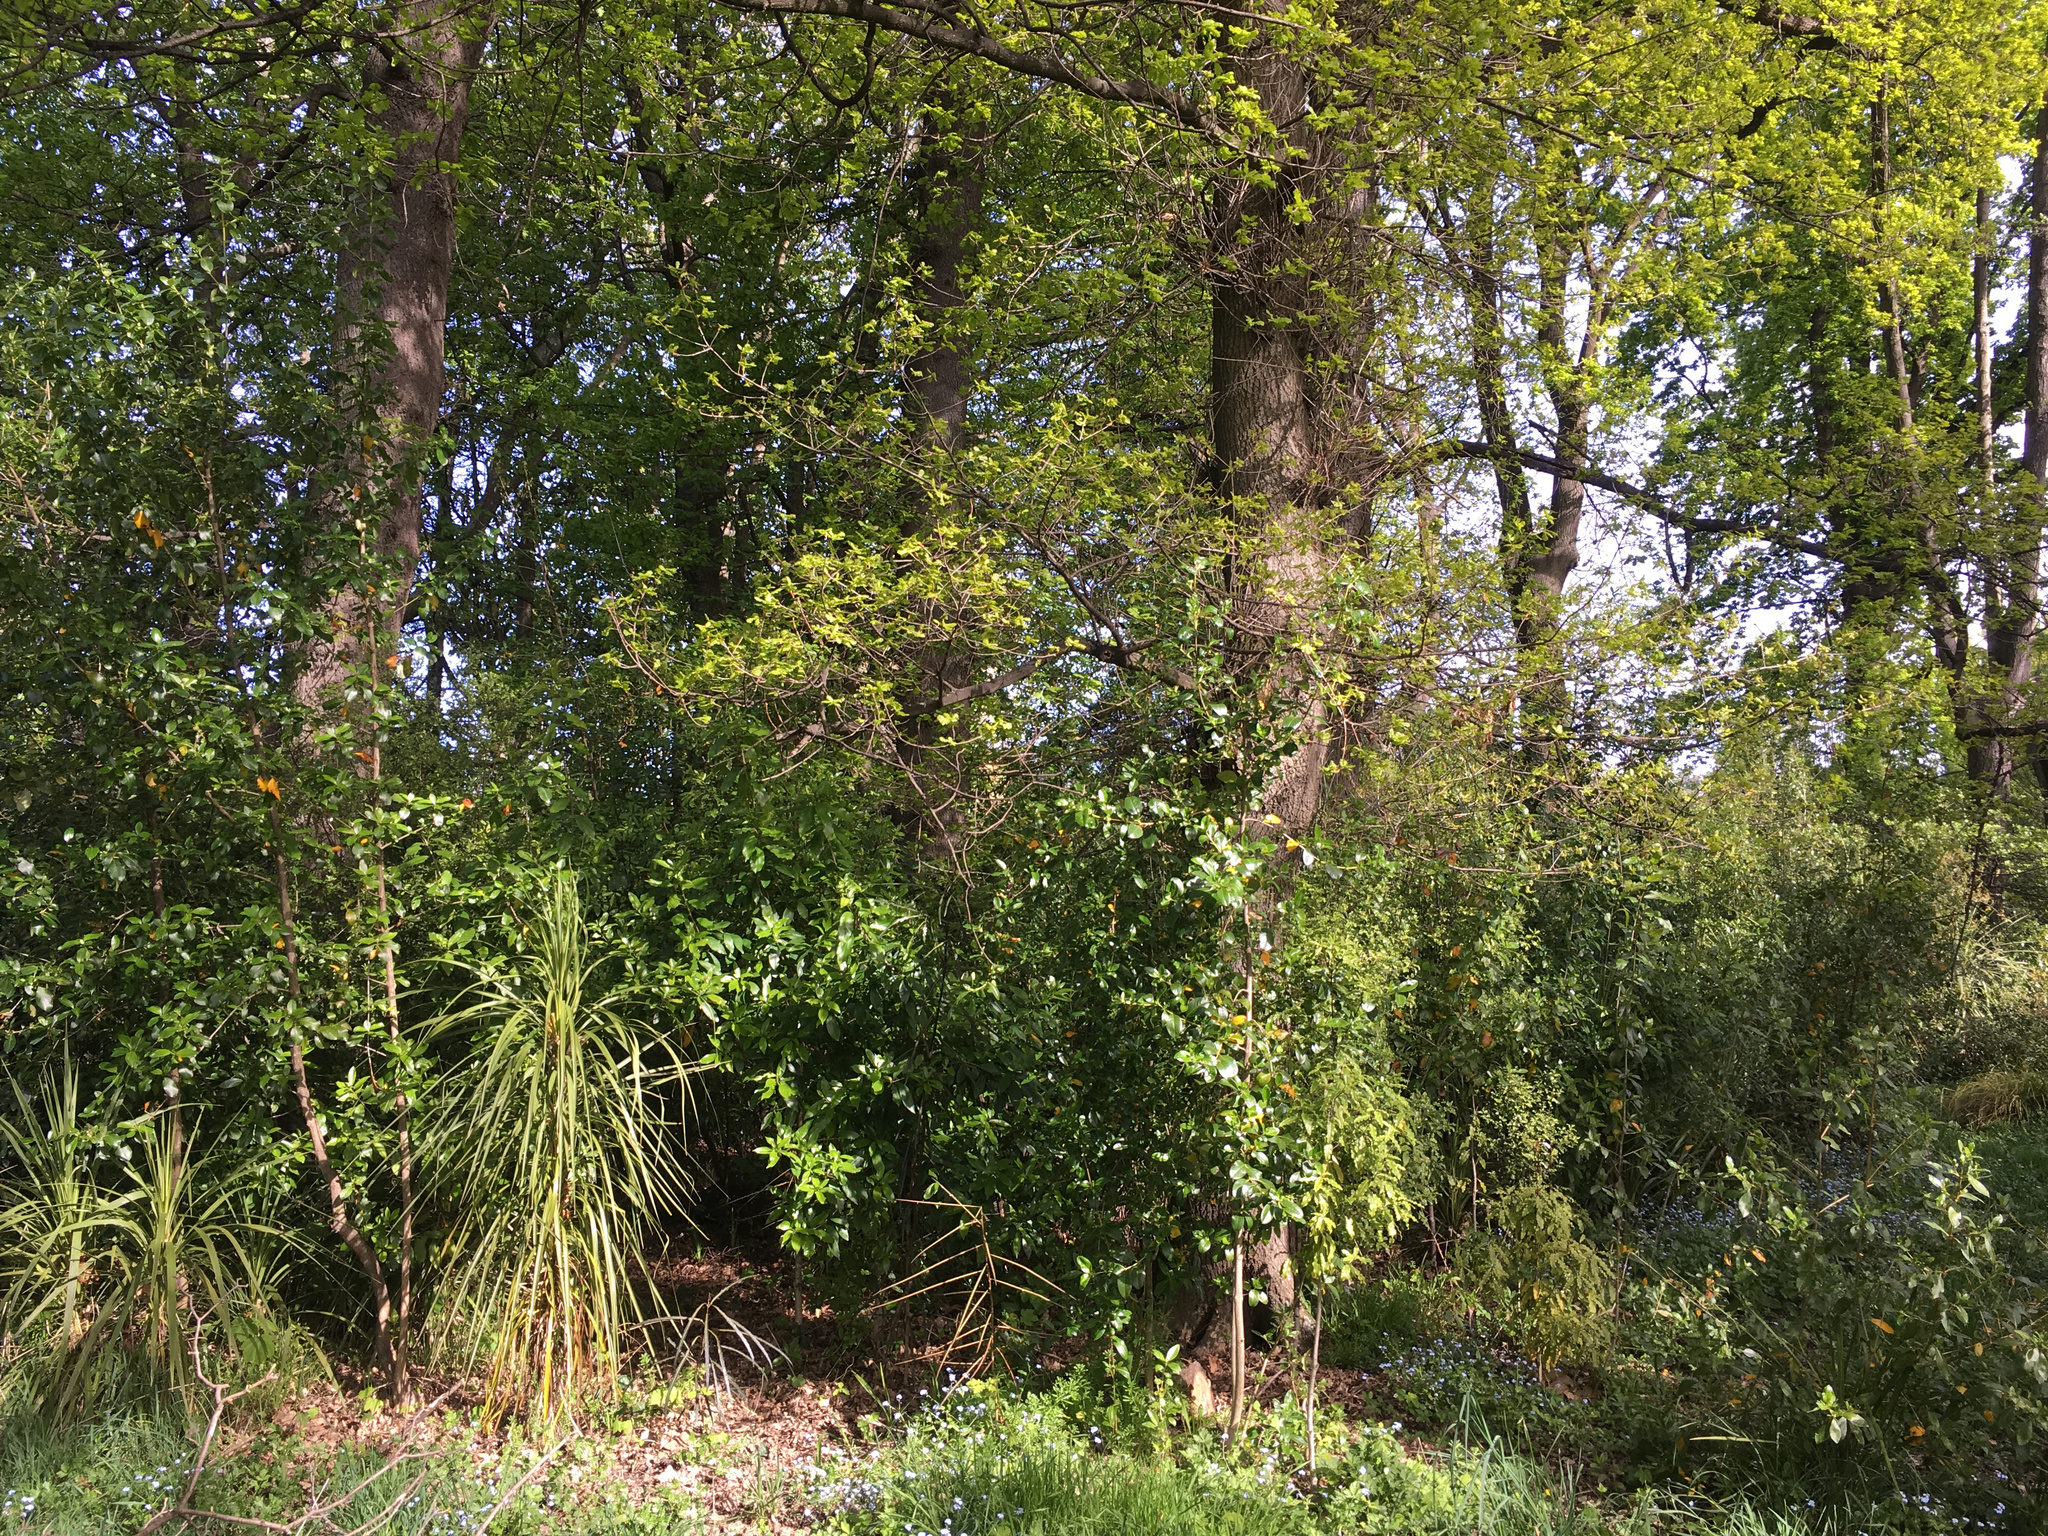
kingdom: Plantae
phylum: Tracheophyta
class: Magnoliopsida
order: Gentianales
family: Rubiaceae
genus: Coprosma
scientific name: Coprosma robusta
